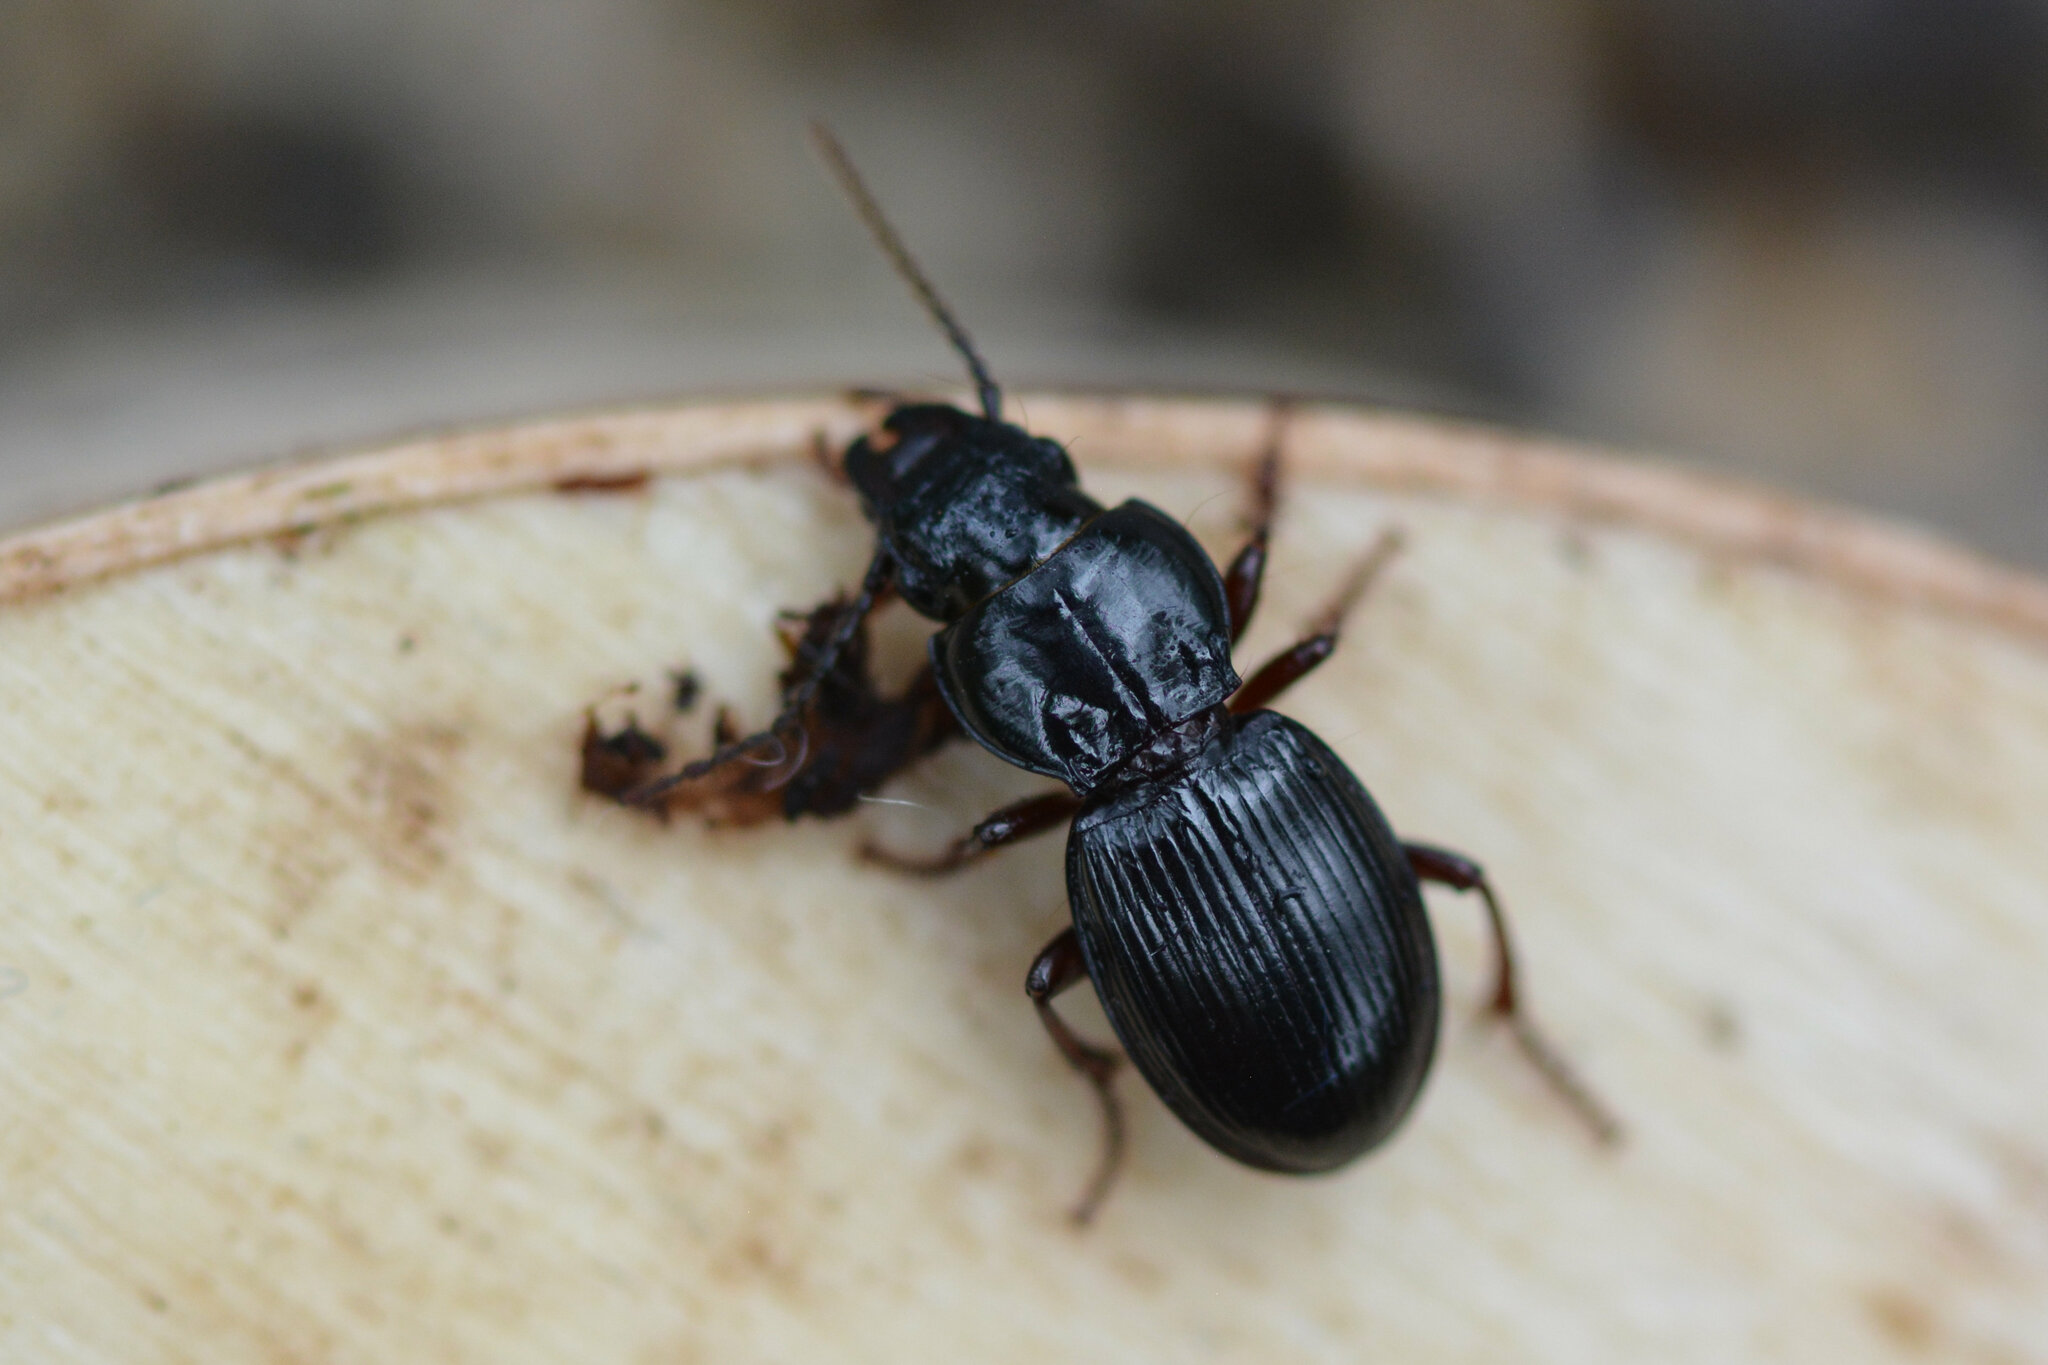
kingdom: Animalia
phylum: Arthropoda
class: Insecta
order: Coleoptera
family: Carabidae
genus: Molops
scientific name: Molops piceus
